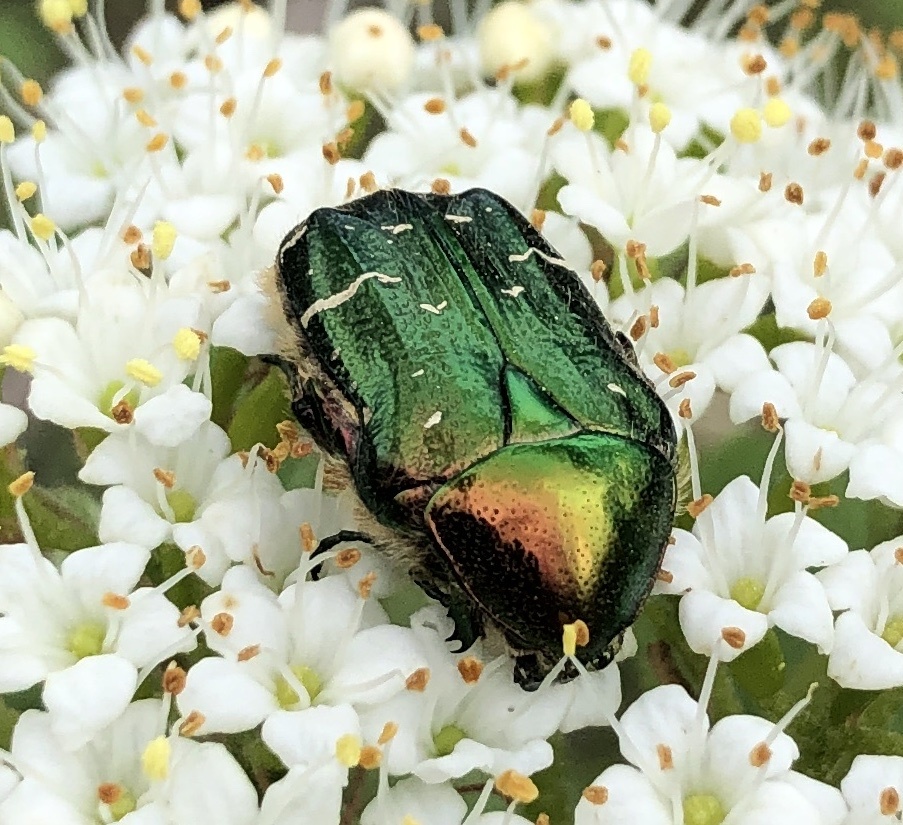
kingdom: Animalia
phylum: Arthropoda
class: Insecta
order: Coleoptera
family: Scarabaeidae
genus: Cetonia
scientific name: Cetonia aurata
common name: Rose chafer
